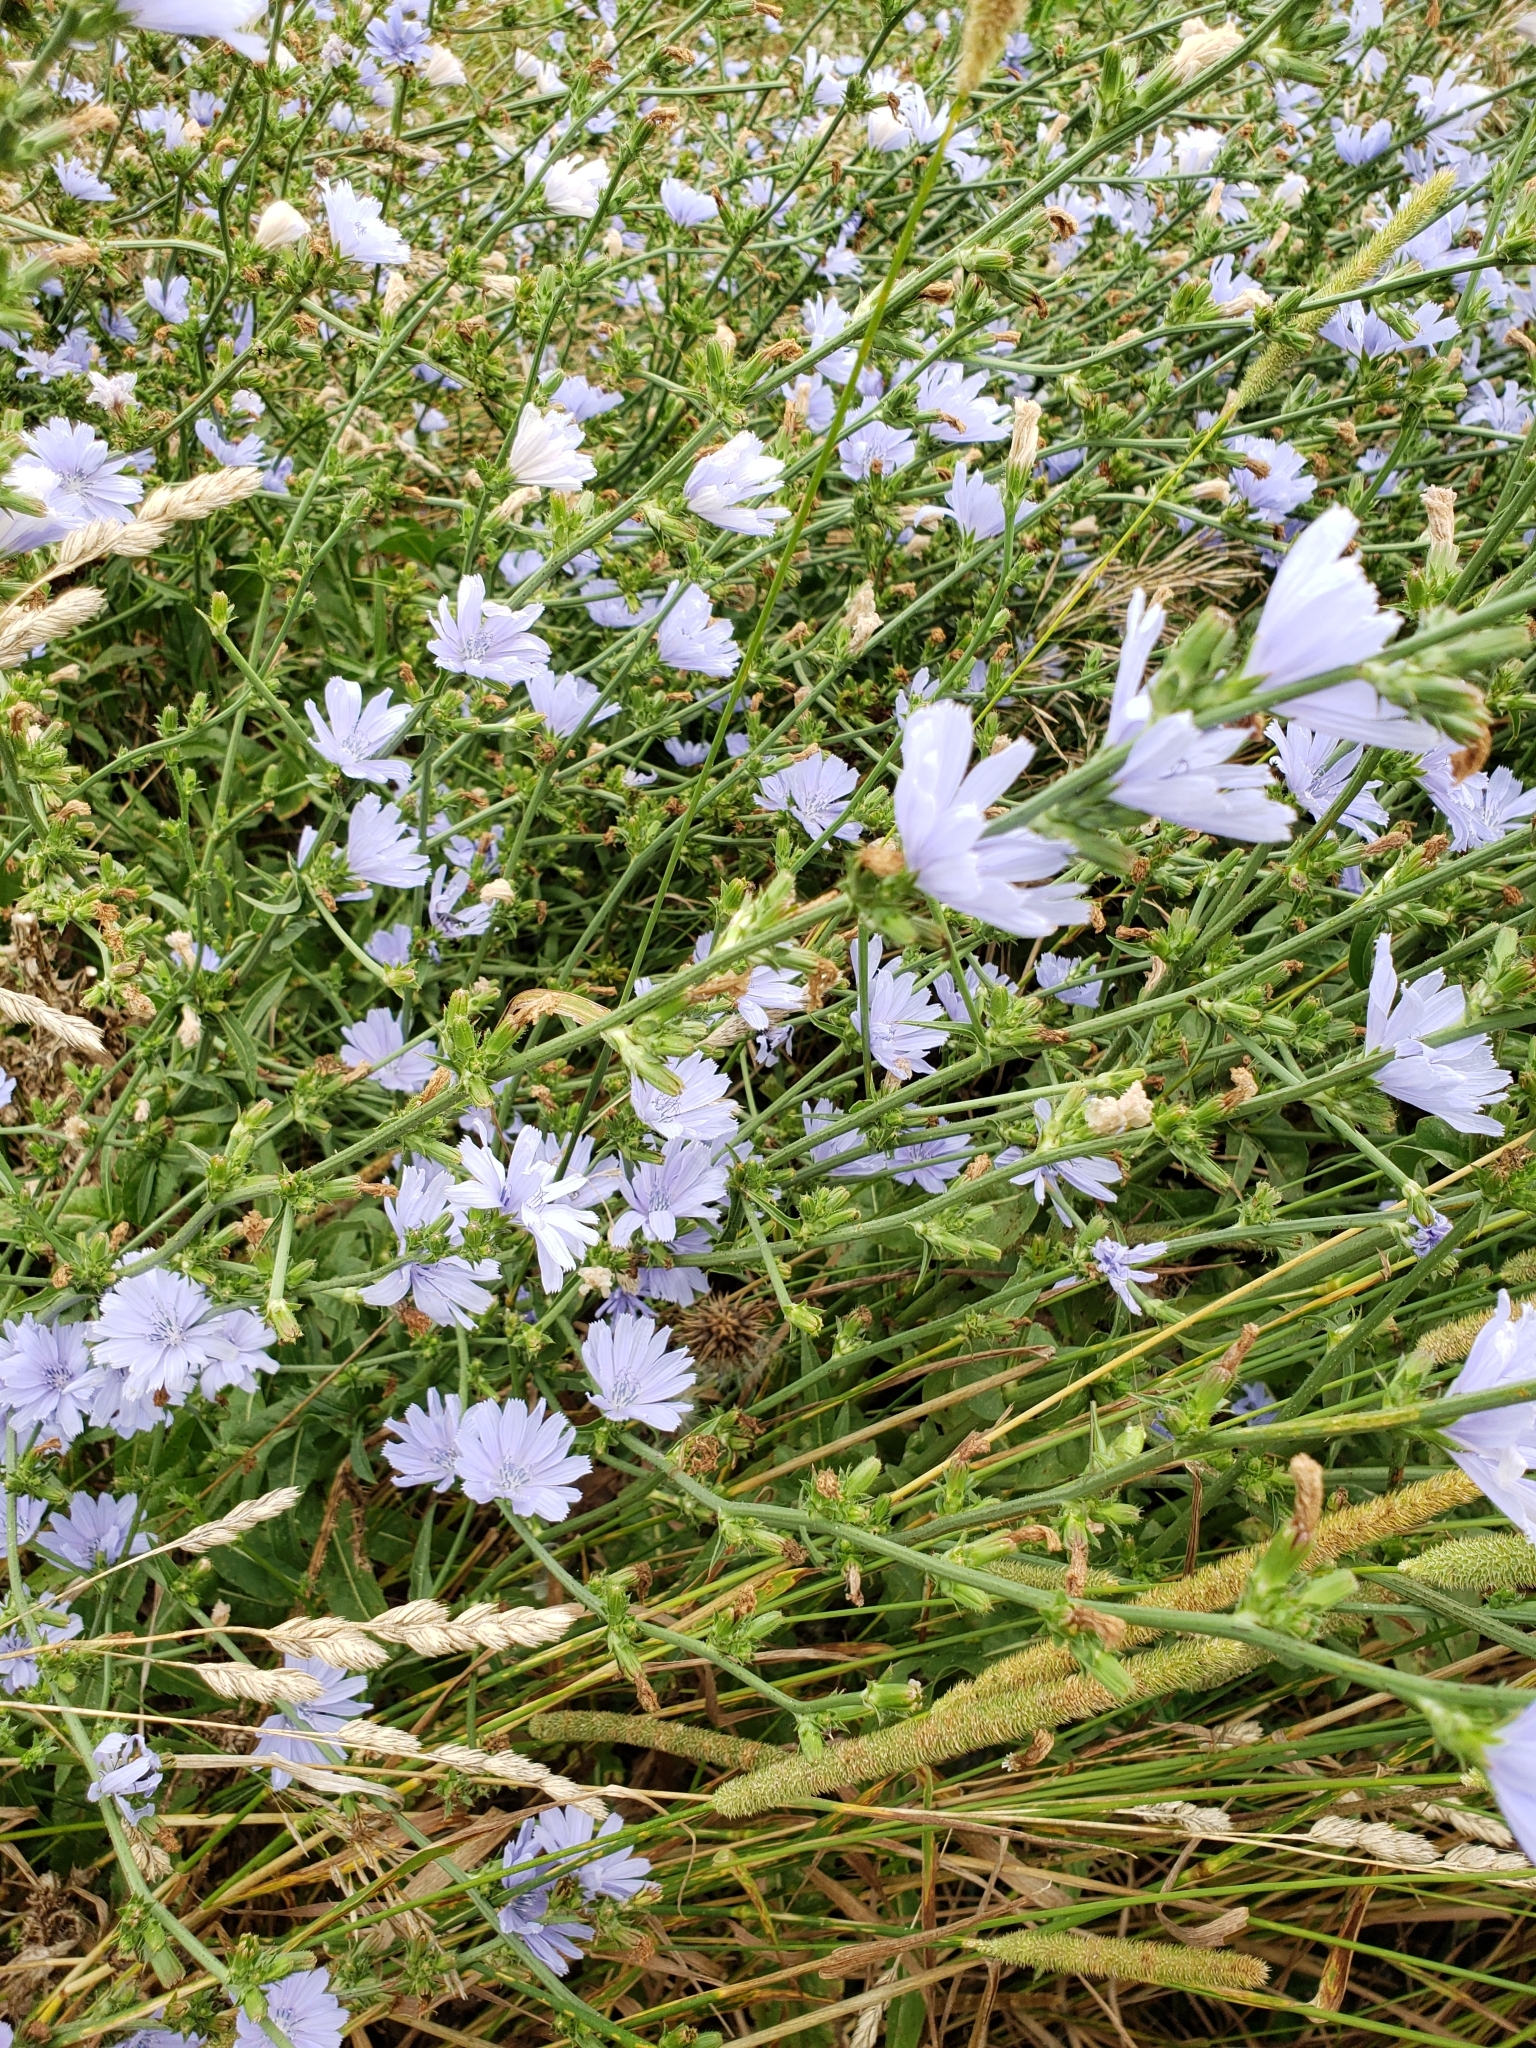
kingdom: Plantae
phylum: Tracheophyta
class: Magnoliopsida
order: Asterales
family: Asteraceae
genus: Cichorium
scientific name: Cichorium intybus
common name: Chicory
